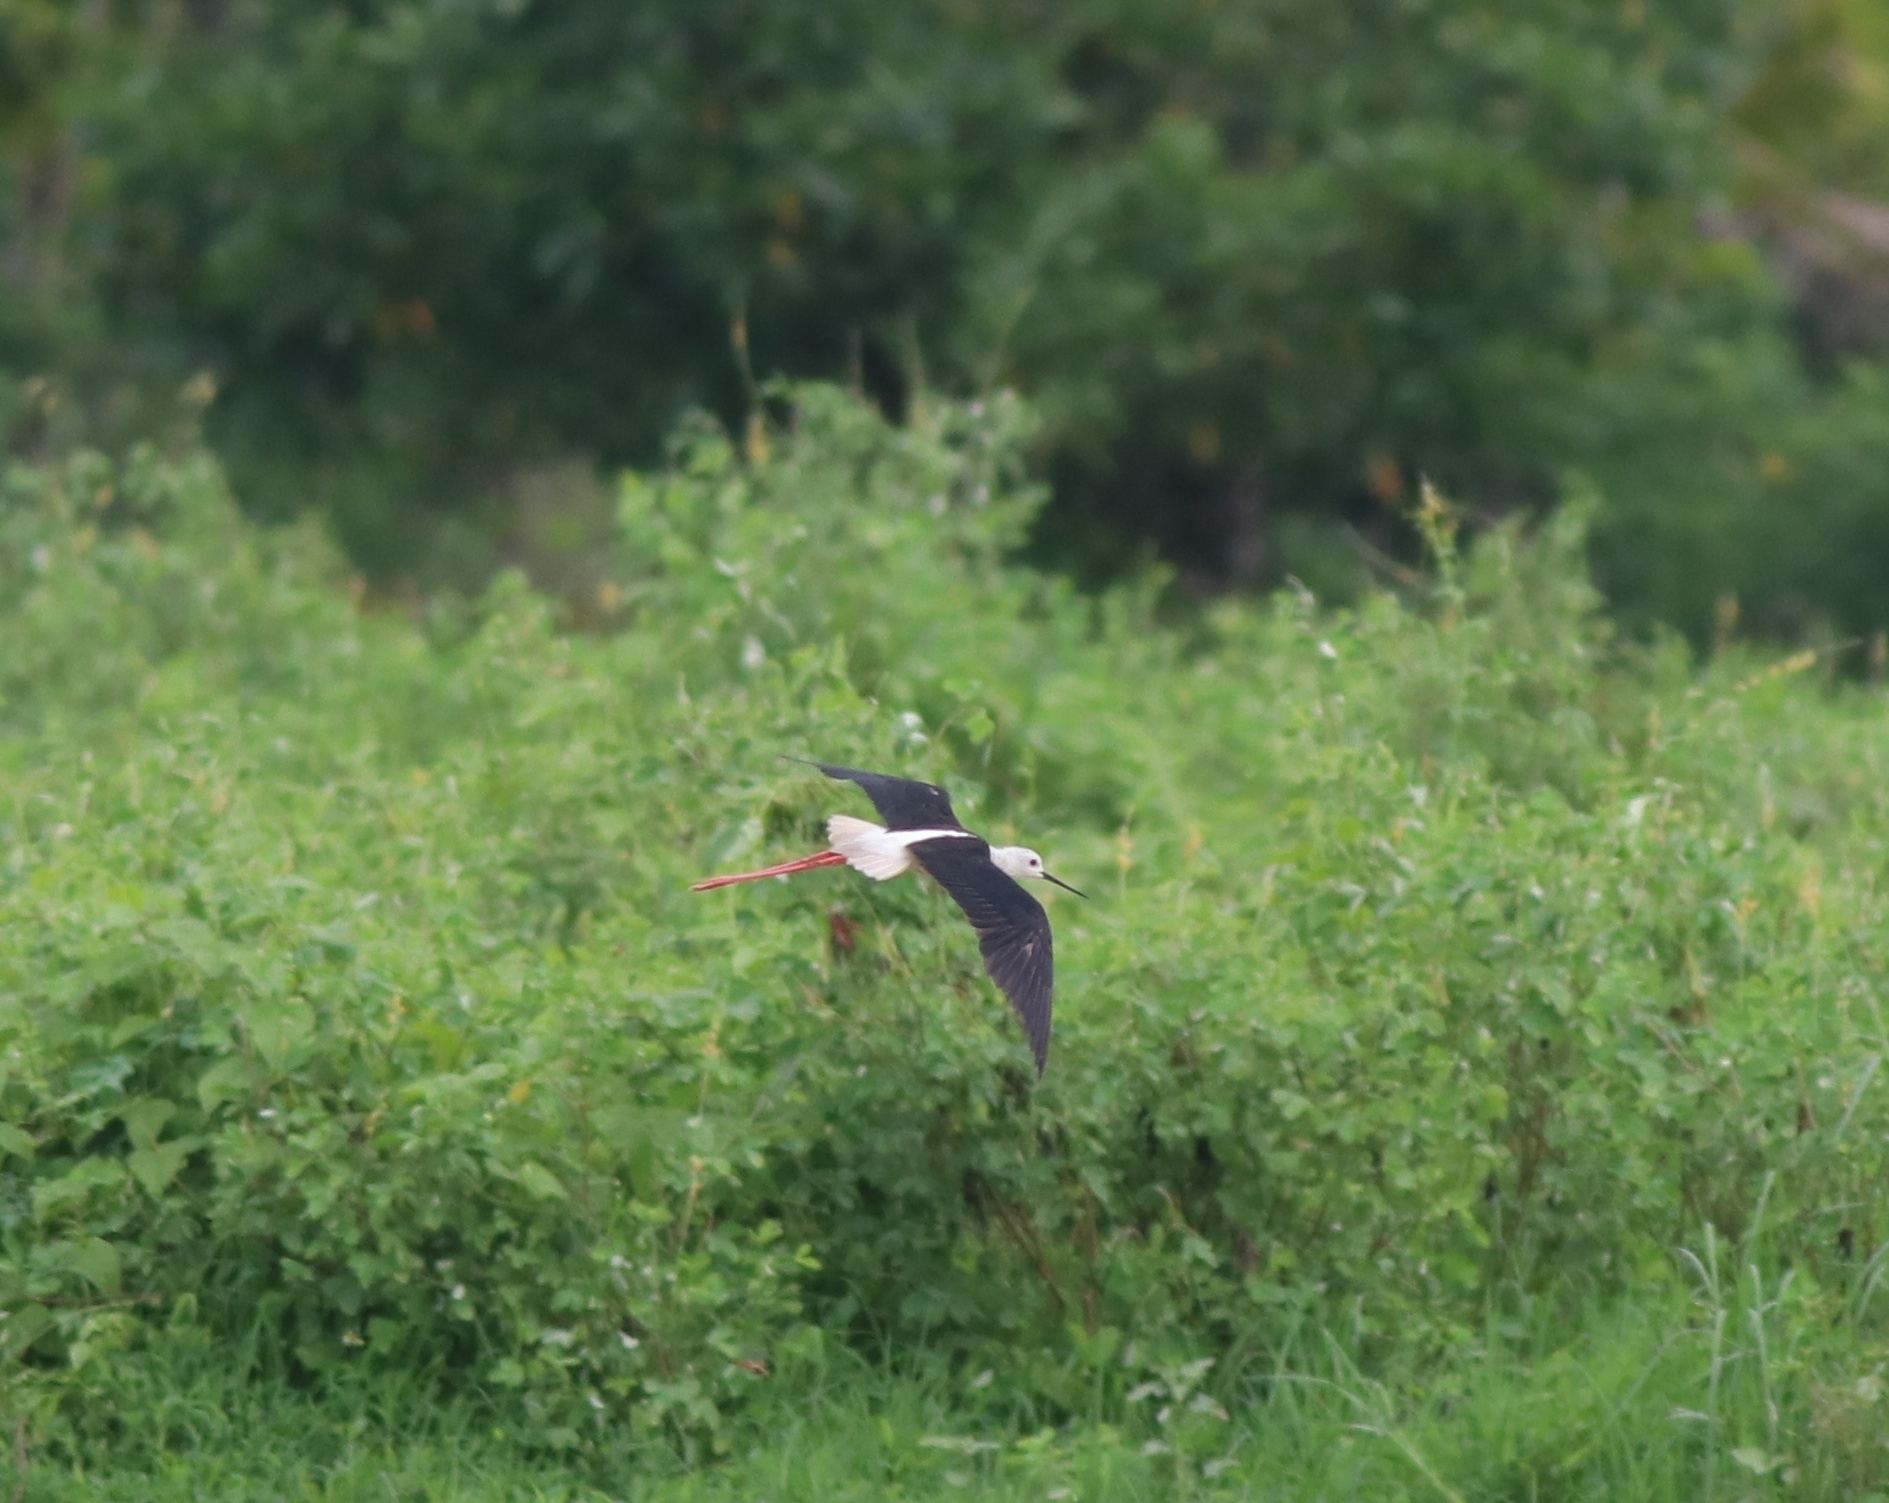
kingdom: Animalia
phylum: Chordata
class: Aves
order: Charadriiformes
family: Recurvirostridae
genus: Himantopus
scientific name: Himantopus himantopus
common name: Black-winged stilt
